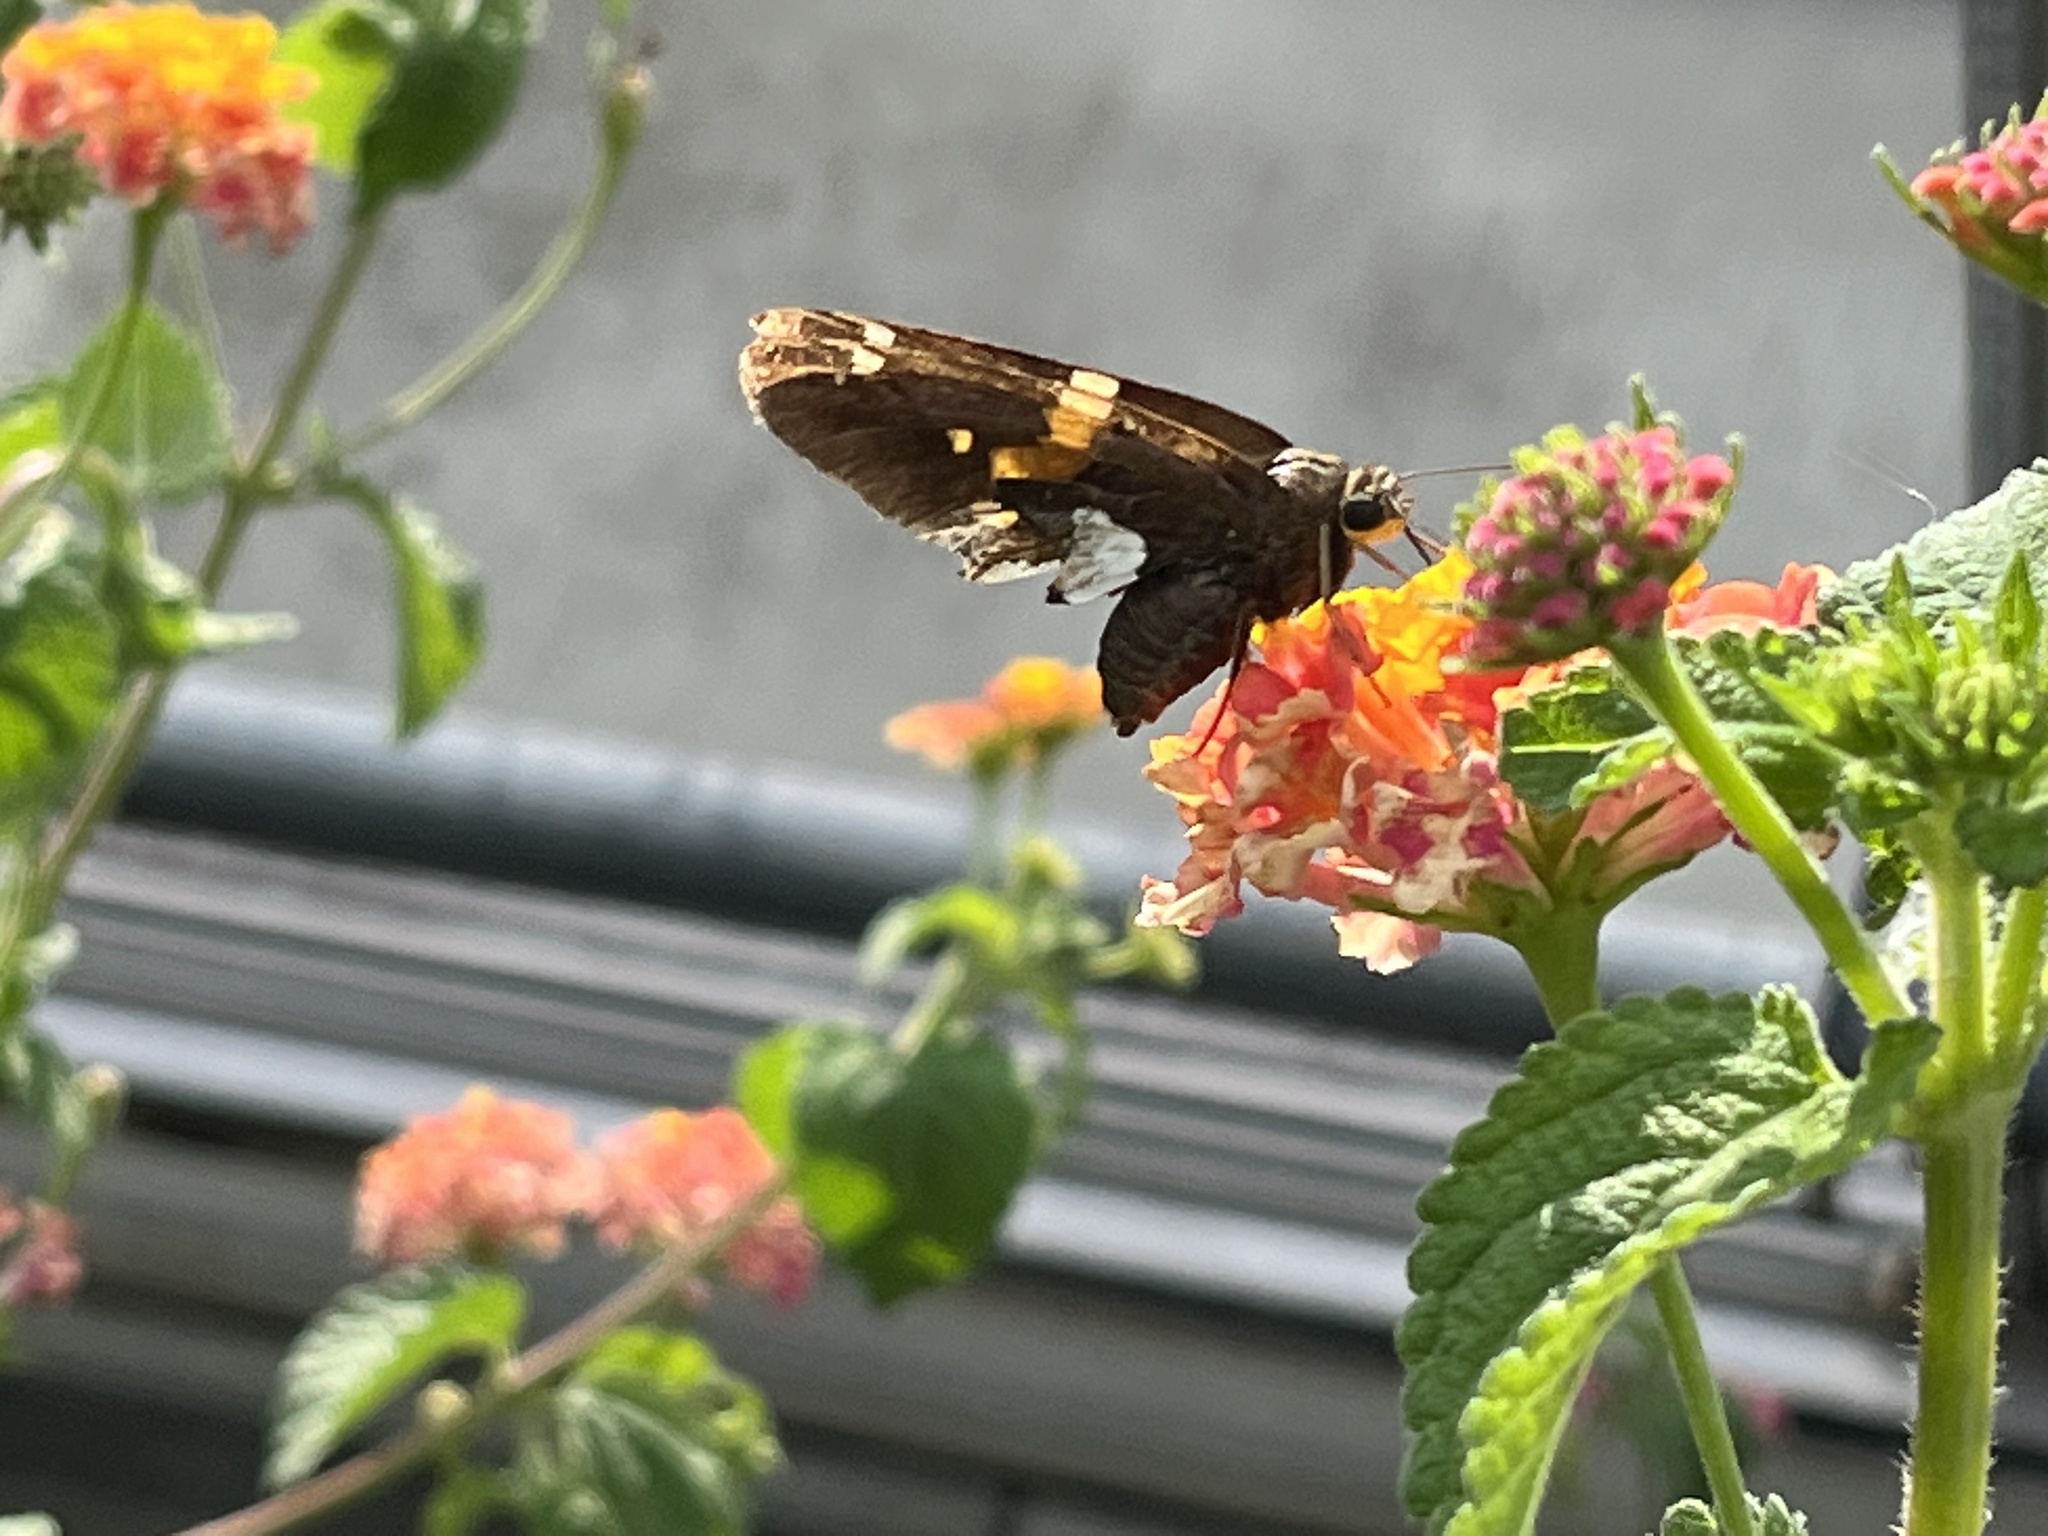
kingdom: Animalia
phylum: Arthropoda
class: Insecta
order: Lepidoptera
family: Hesperiidae
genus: Epargyreus
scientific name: Epargyreus clarus
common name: Silver-spotted skipper
